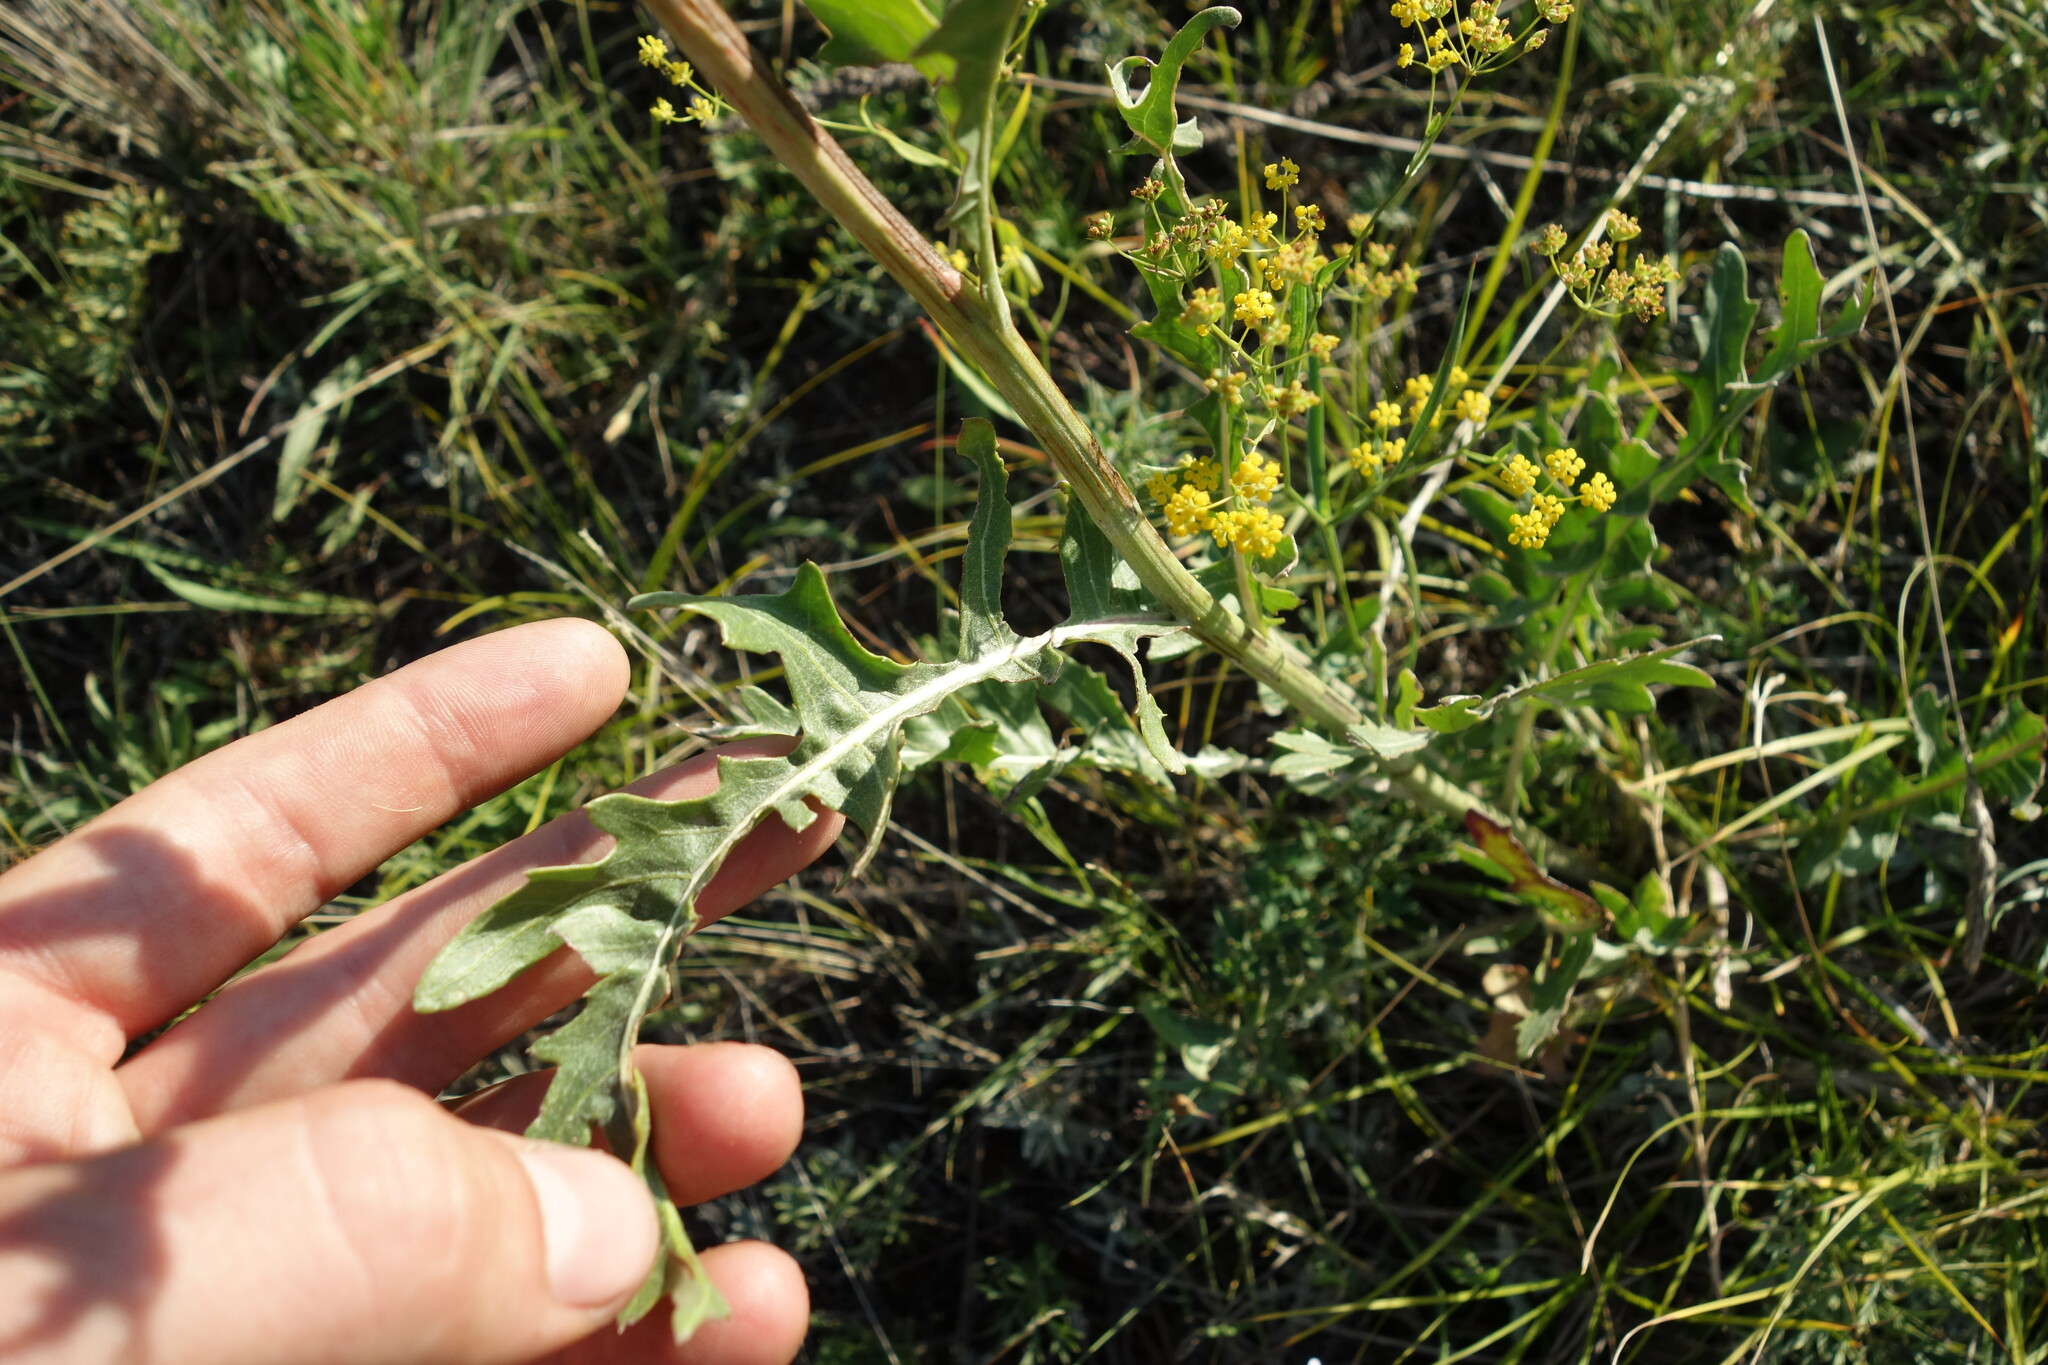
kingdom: Plantae
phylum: Tracheophyta
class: Magnoliopsida
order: Asterales
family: Asteraceae
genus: Leuzea
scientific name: Leuzea uniflora
